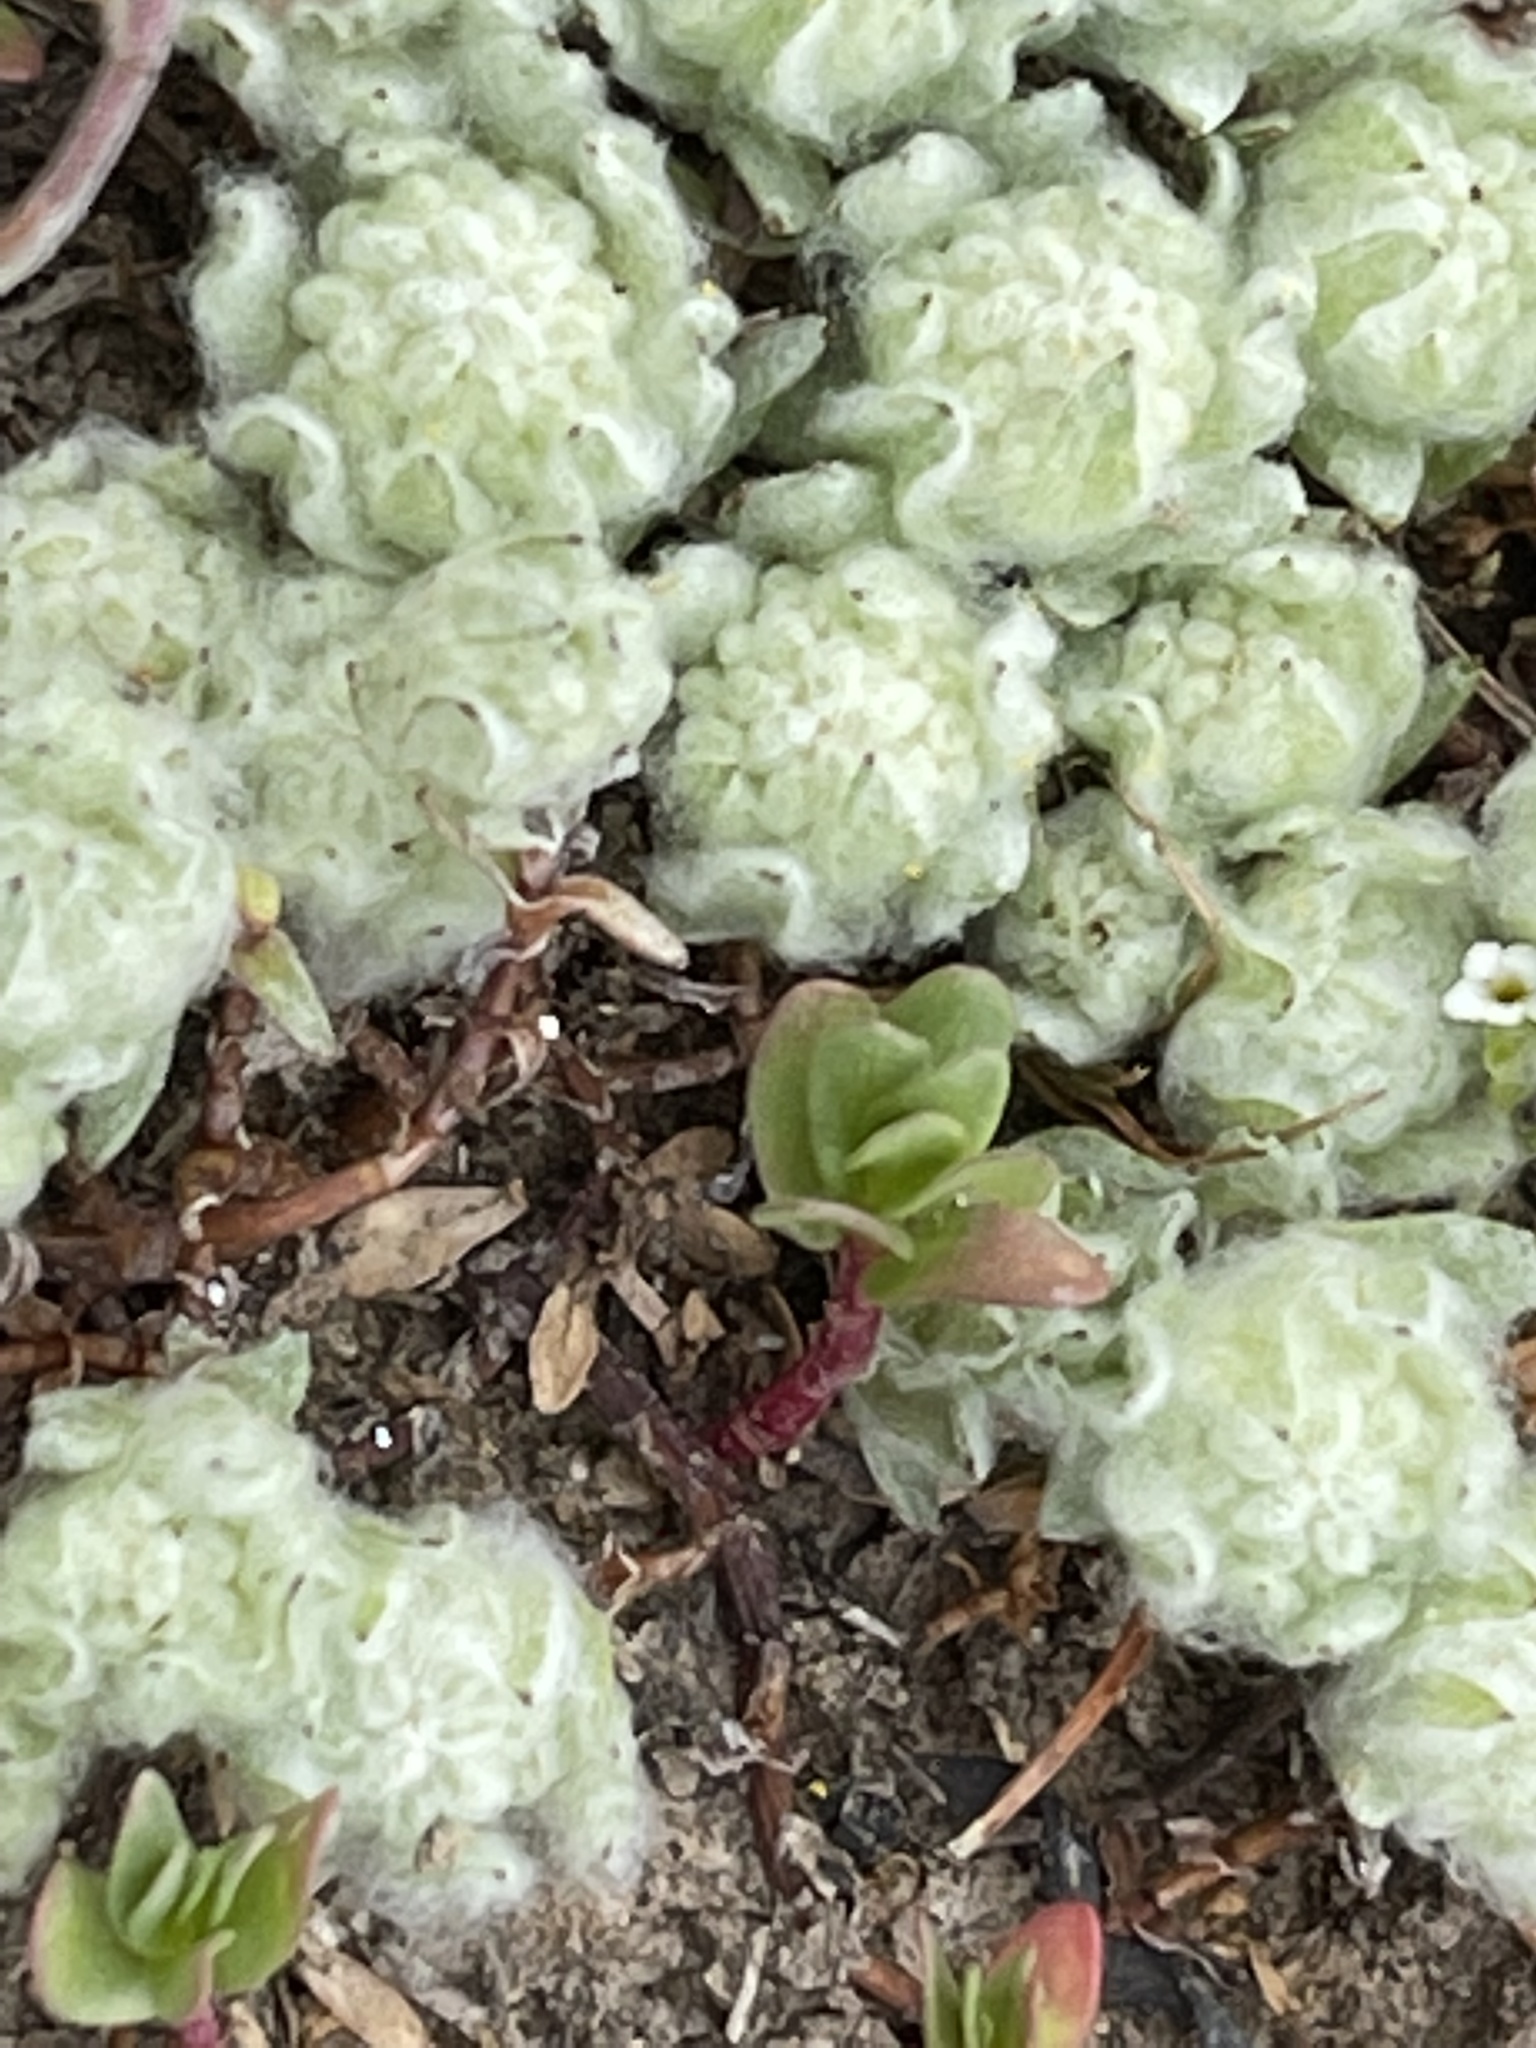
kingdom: Plantae
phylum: Tracheophyta
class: Magnoliopsida
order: Asterales
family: Asteraceae
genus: Psilocarphus
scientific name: Psilocarphus brevissimus
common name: Dwarf woollyheads
